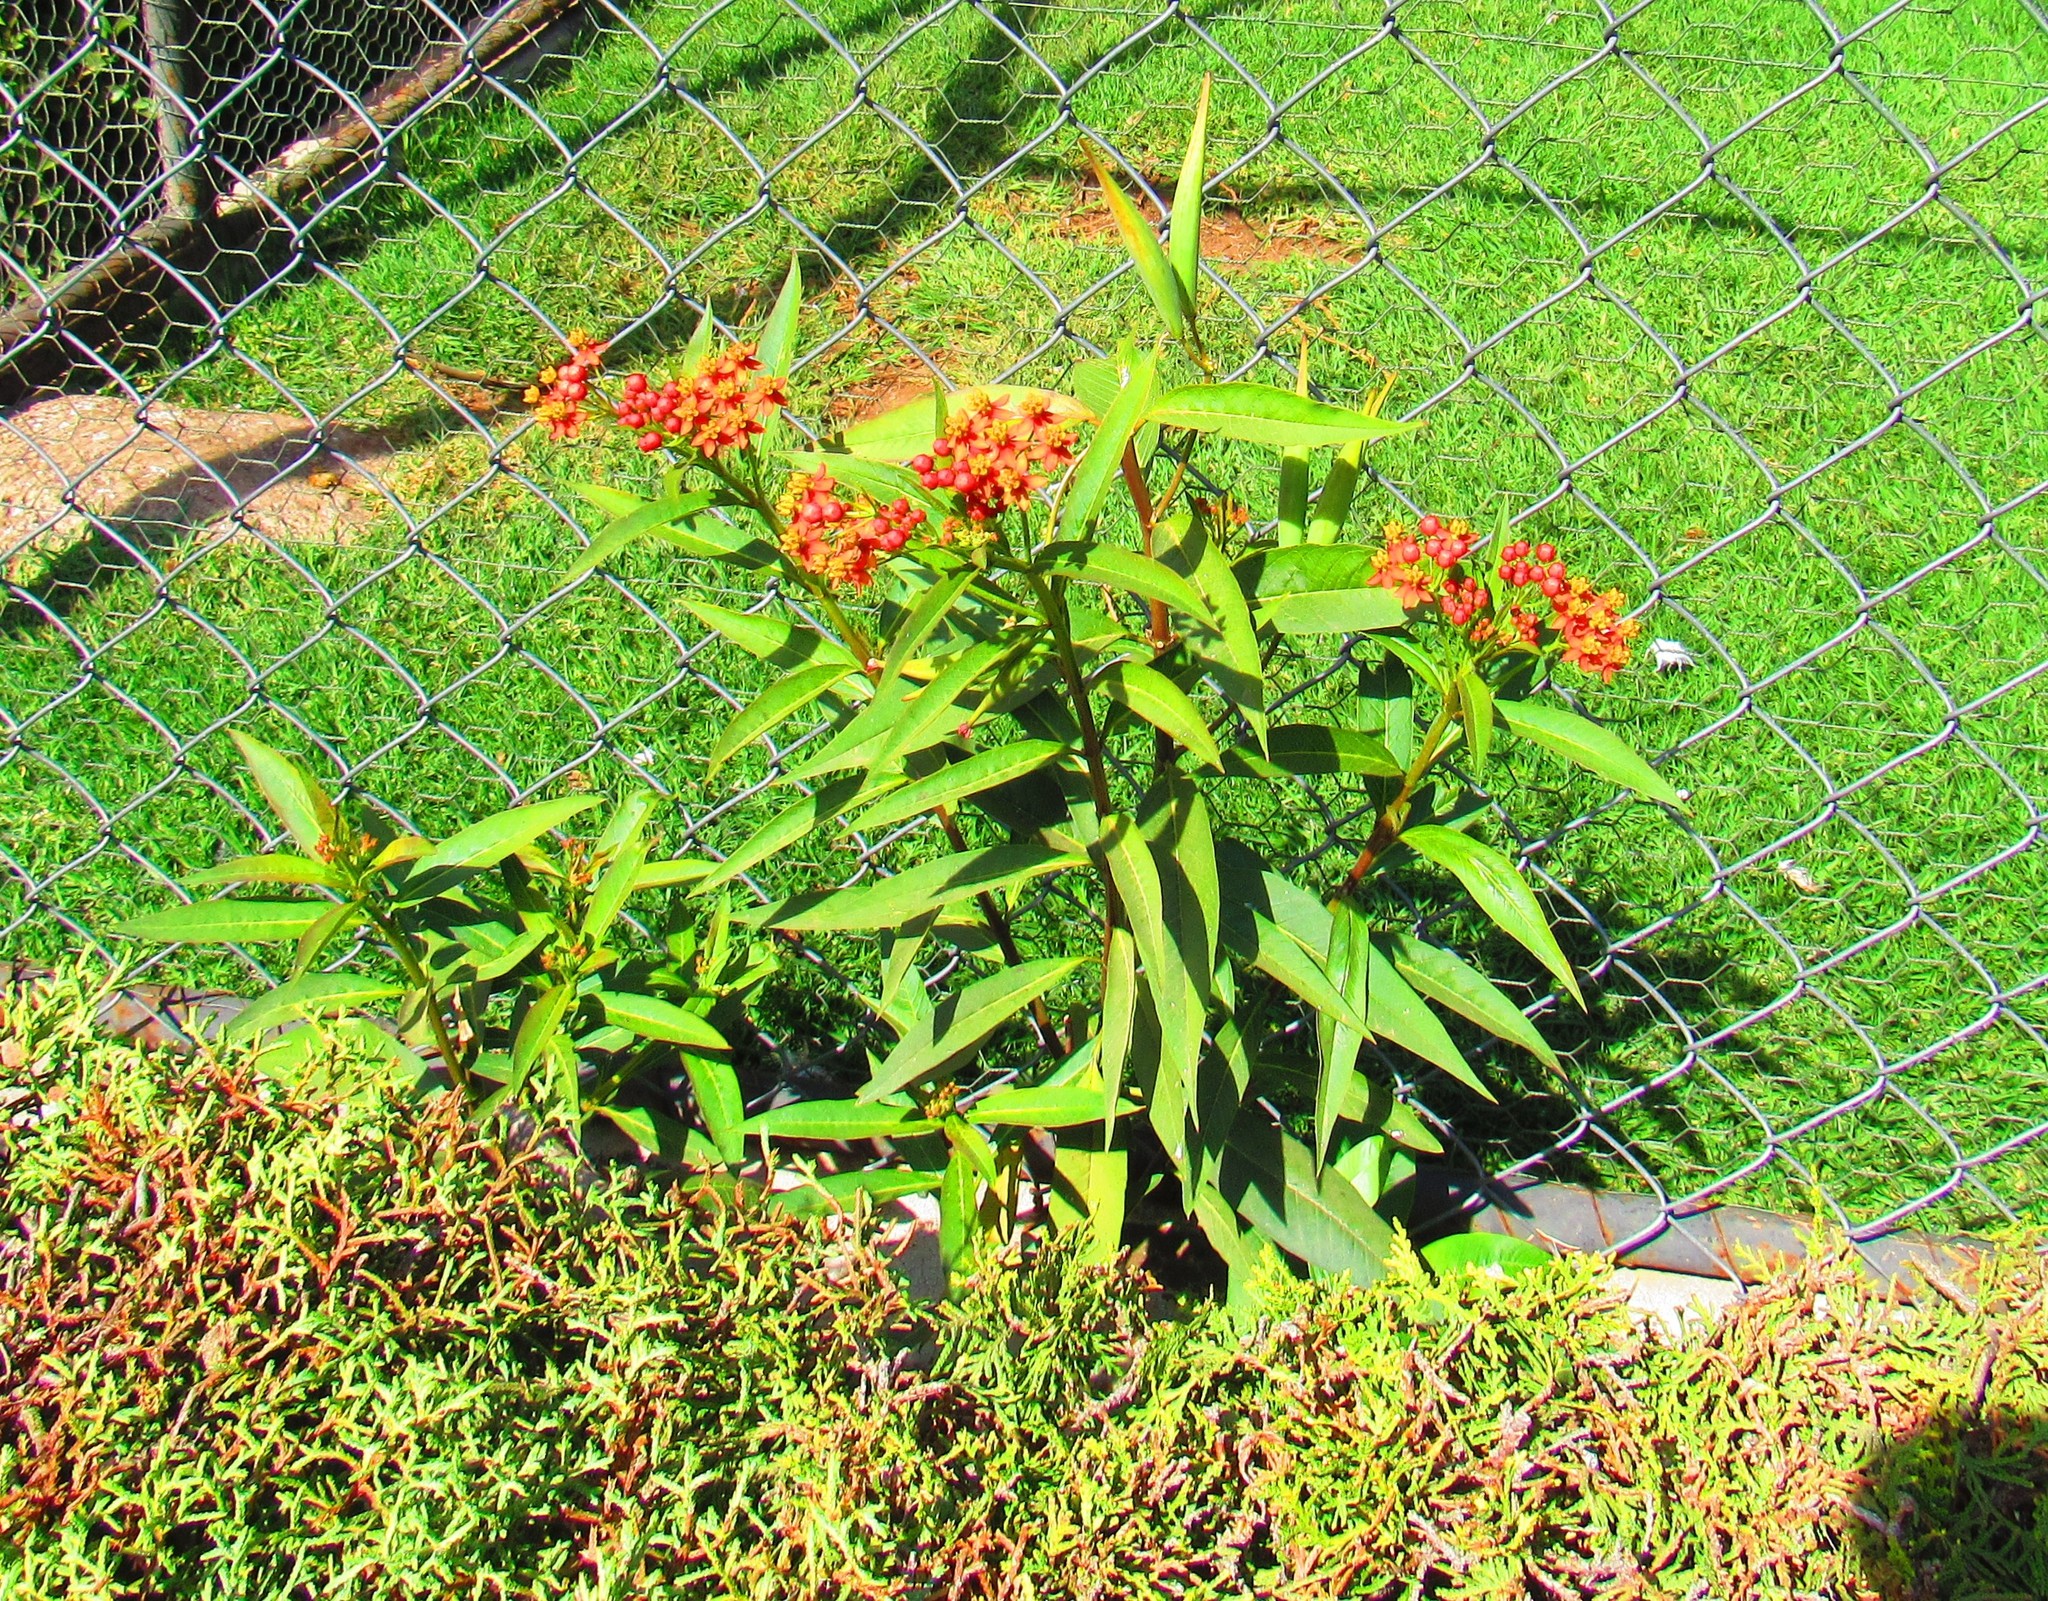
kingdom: Plantae
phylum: Tracheophyta
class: Magnoliopsida
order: Gentianales
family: Apocynaceae
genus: Asclepias
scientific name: Asclepias curassavica
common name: Bloodflower
